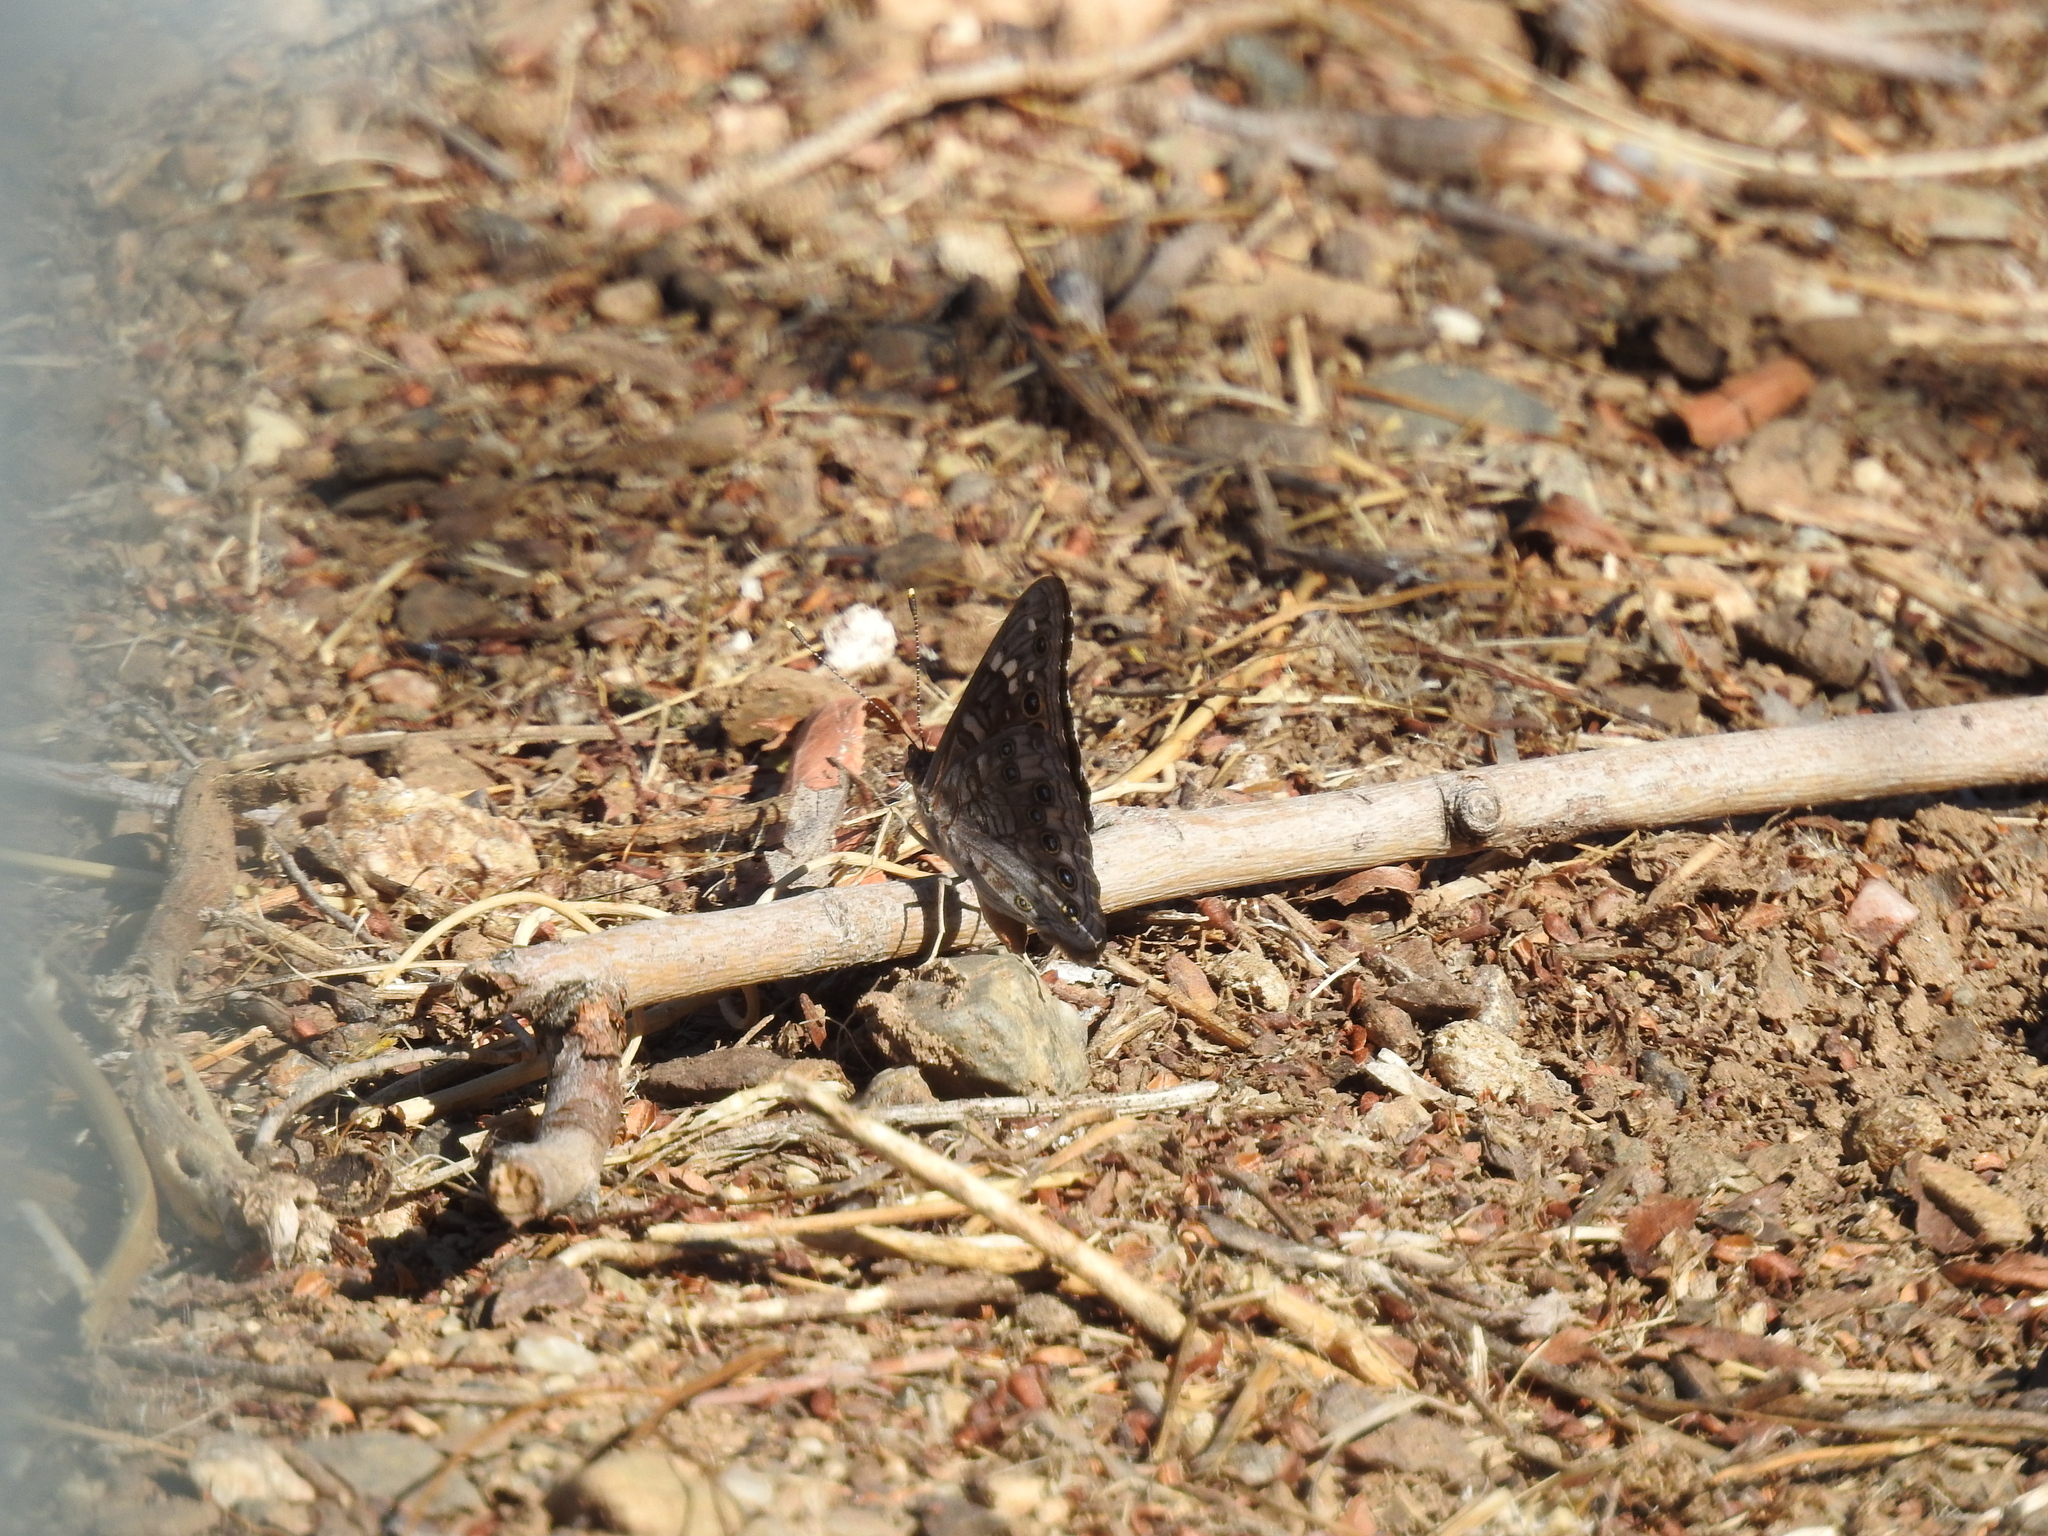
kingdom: Animalia
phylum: Arthropoda
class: Insecta
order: Lepidoptera
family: Nymphalidae
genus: Asterocampa
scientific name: Asterocampa leilia
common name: Empress leilia
